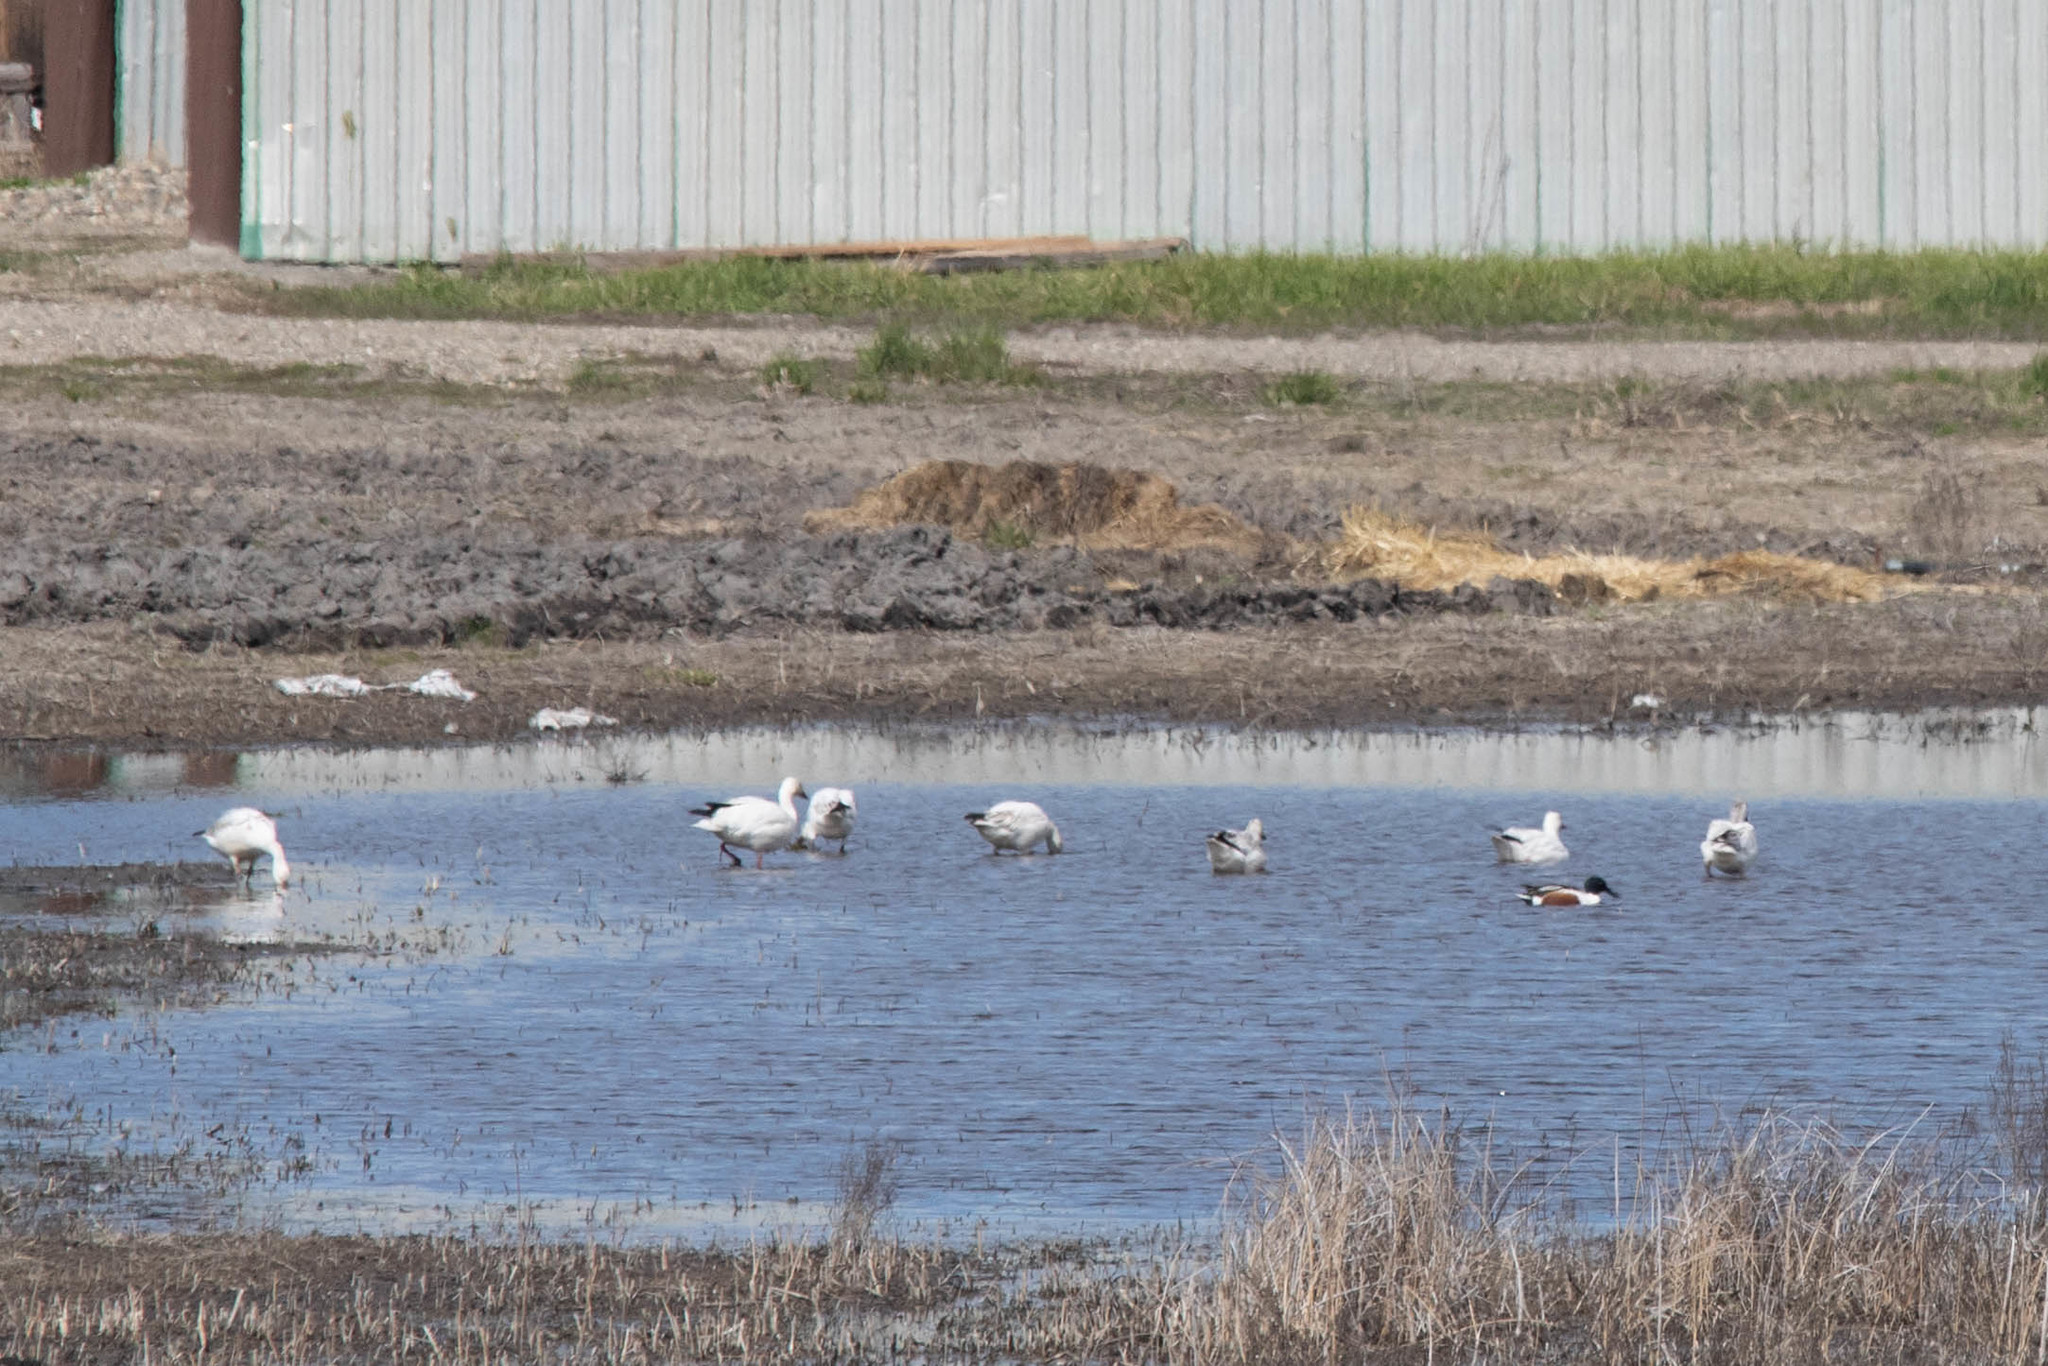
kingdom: Animalia
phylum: Chordata
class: Aves
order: Anseriformes
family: Anatidae
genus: Anser
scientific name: Anser caerulescens
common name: Snow goose
